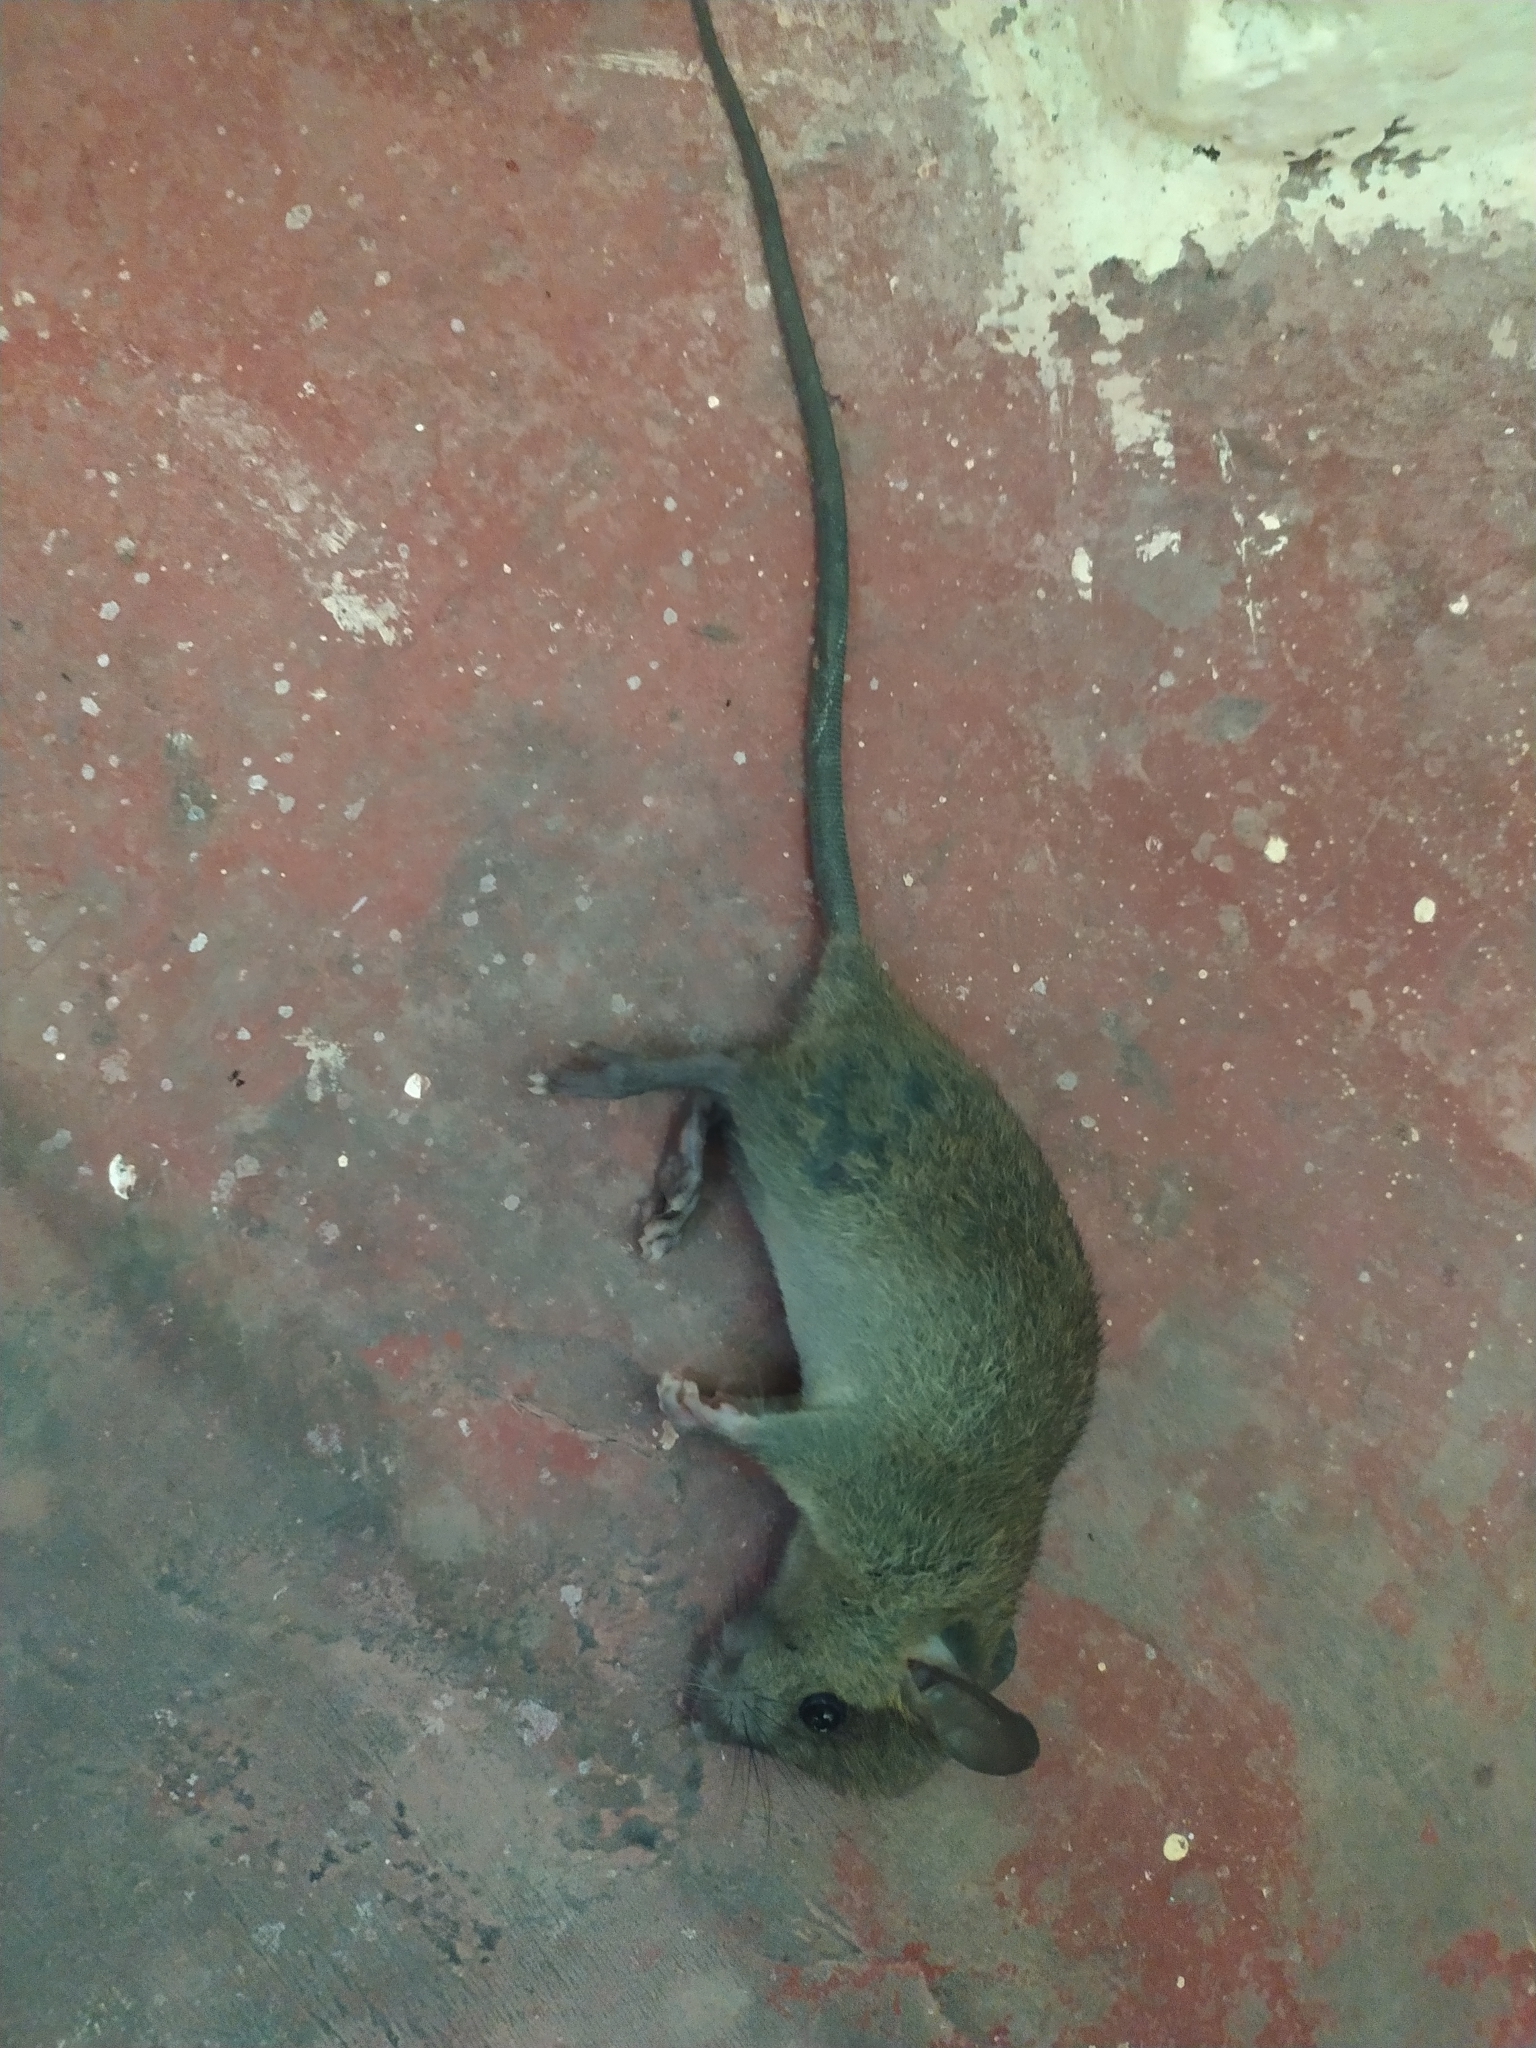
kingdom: Animalia
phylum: Chordata
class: Mammalia
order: Rodentia
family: Muridae
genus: Rattus
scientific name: Rattus rattus
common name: Black rat
